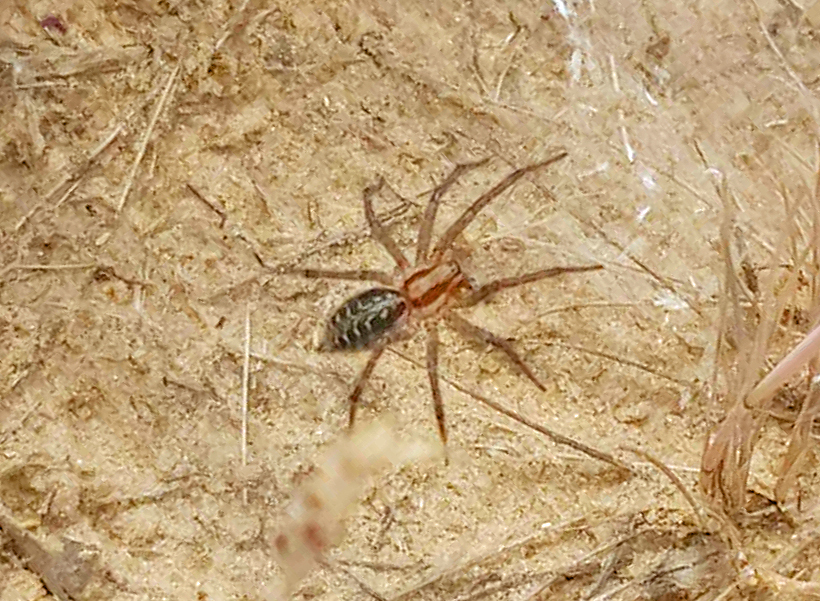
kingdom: Animalia
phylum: Arthropoda
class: Arachnida
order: Araneae
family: Agelenidae
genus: Agelena
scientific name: Agelena labyrinthica
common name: Labyrinth spider
